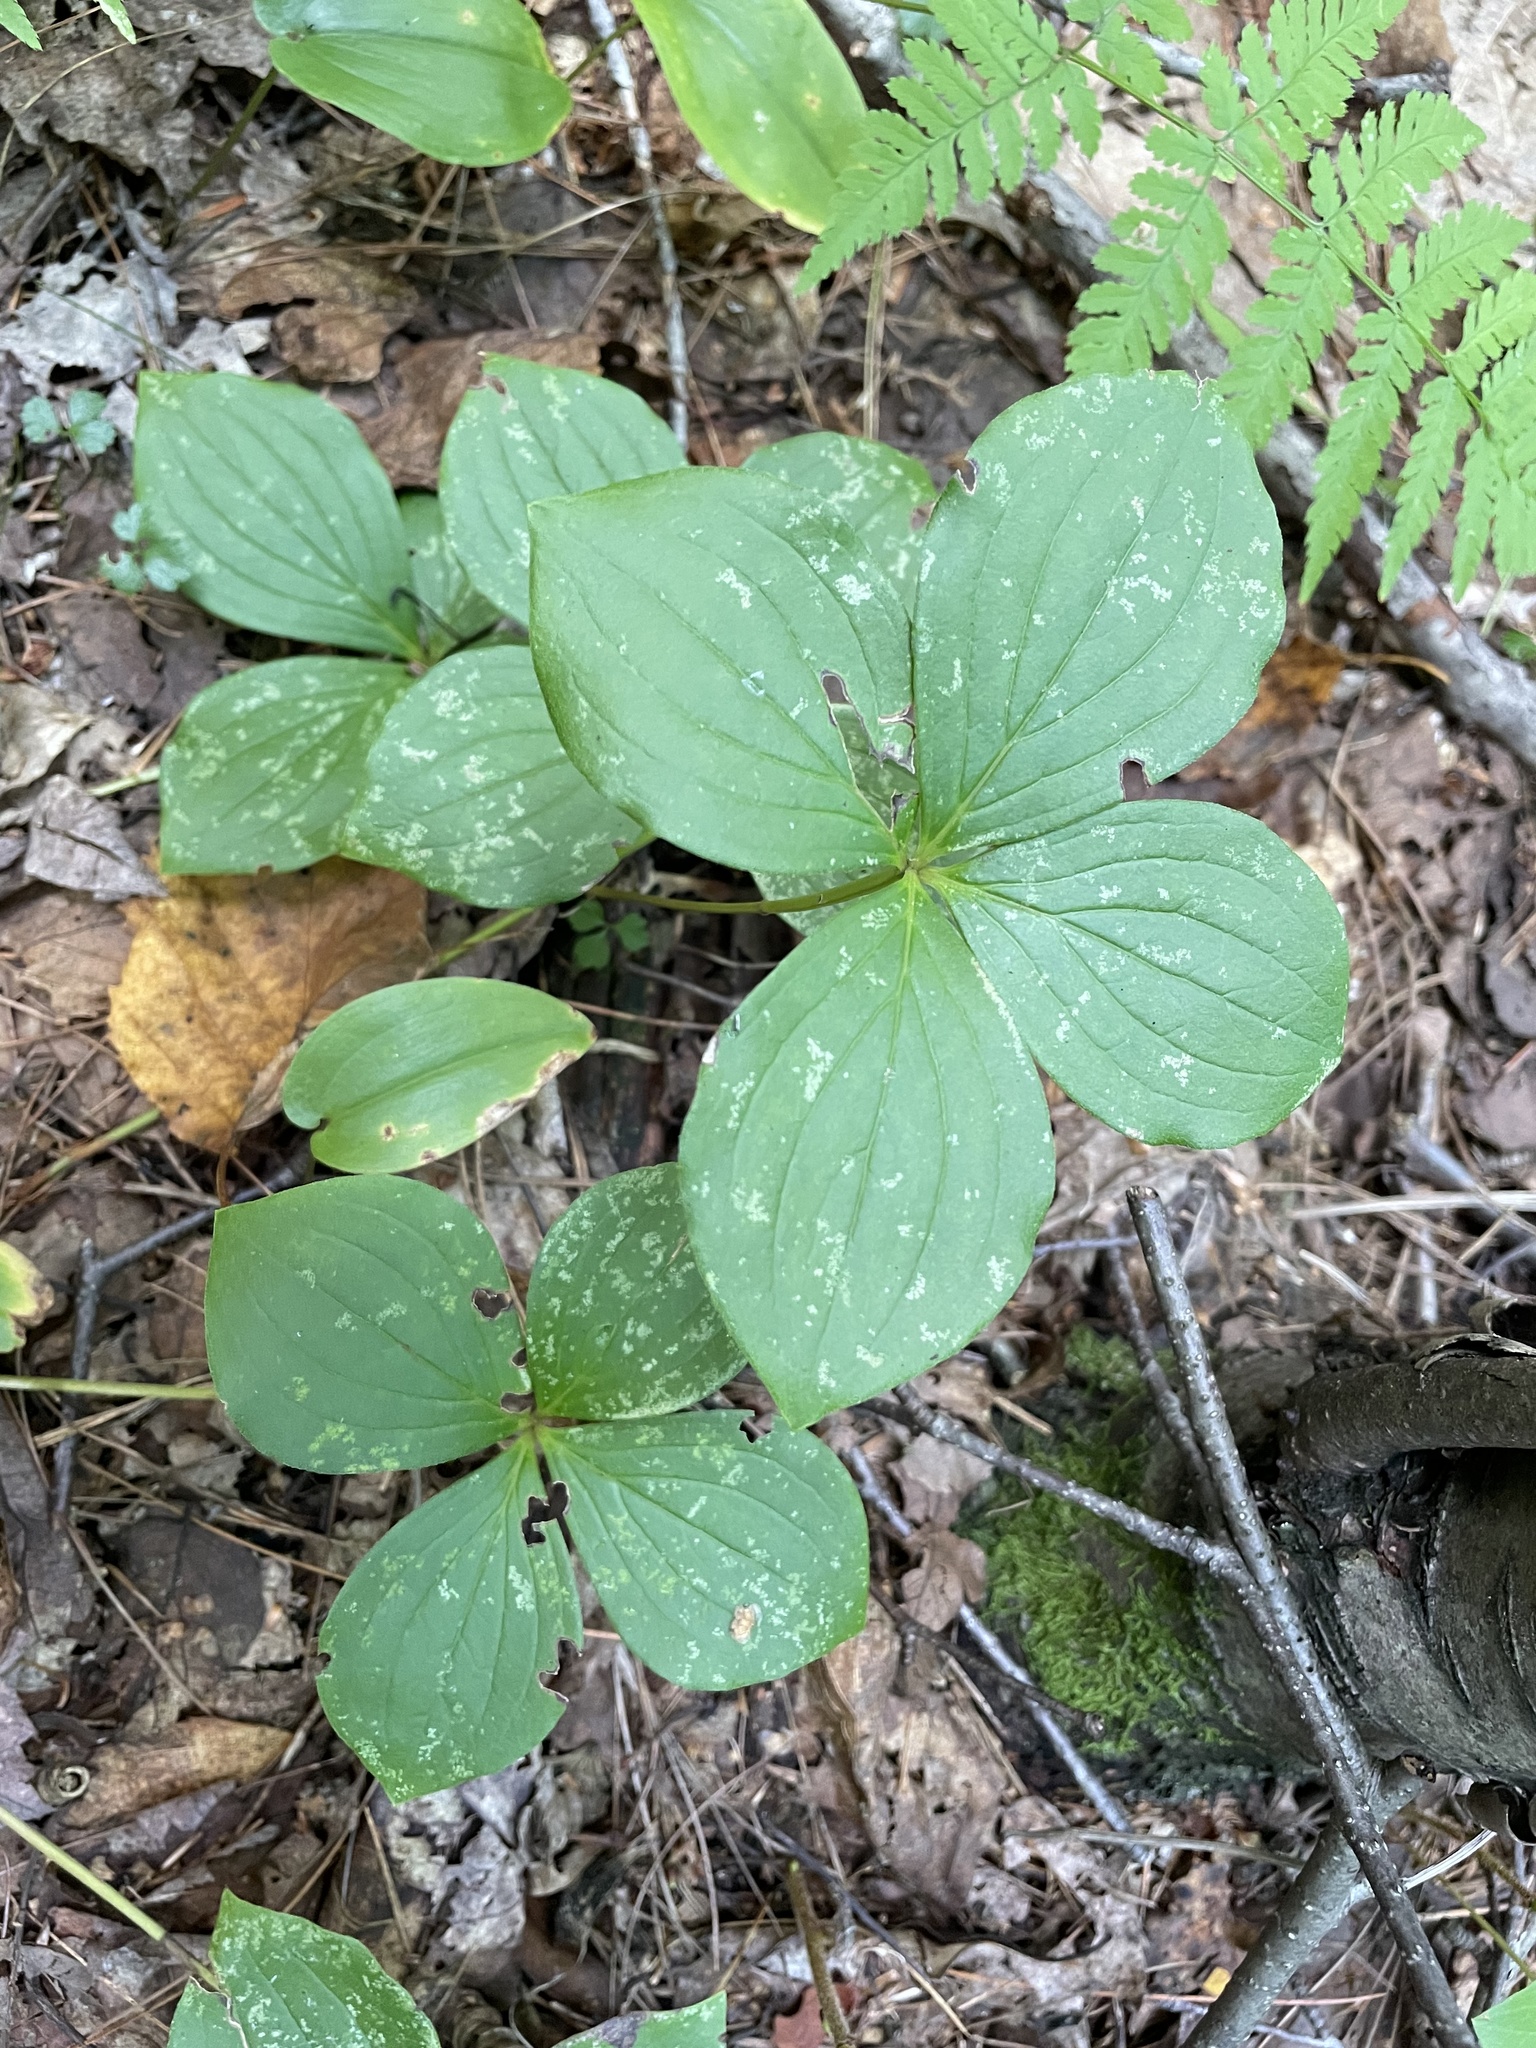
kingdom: Plantae
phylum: Tracheophyta
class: Magnoliopsida
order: Cornales
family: Cornaceae
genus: Cornus
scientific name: Cornus canadensis
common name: Creeping dogwood
